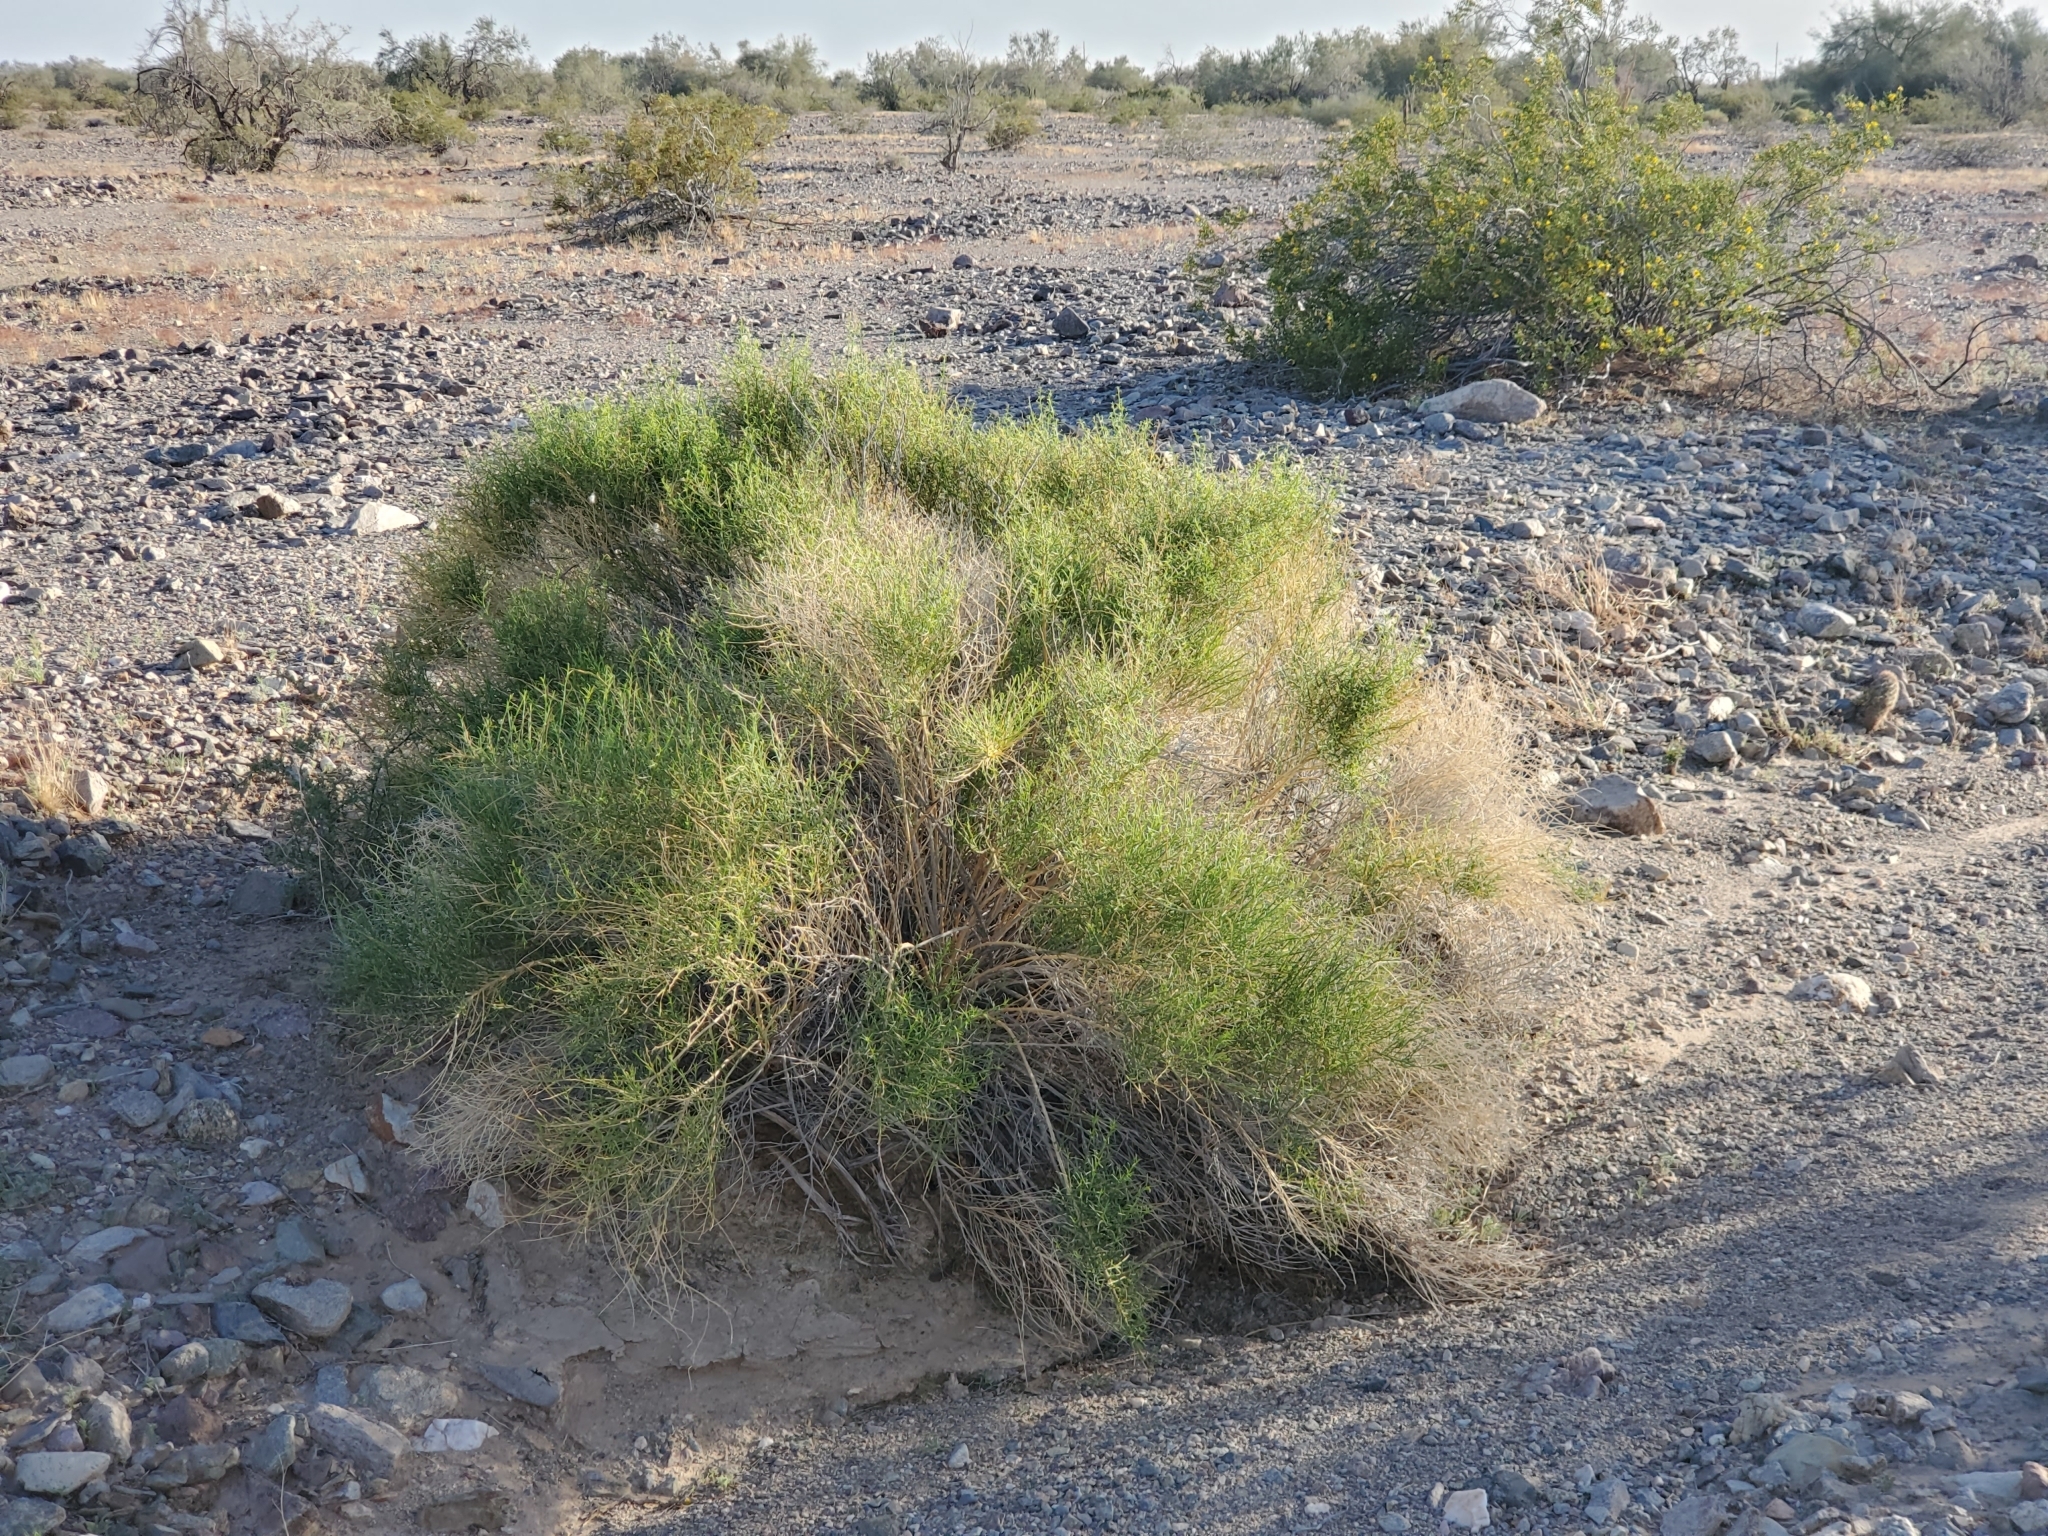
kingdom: Plantae
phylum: Tracheophyta
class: Magnoliopsida
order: Asterales
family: Asteraceae
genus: Ambrosia
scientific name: Ambrosia salsola
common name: Burrobrush
